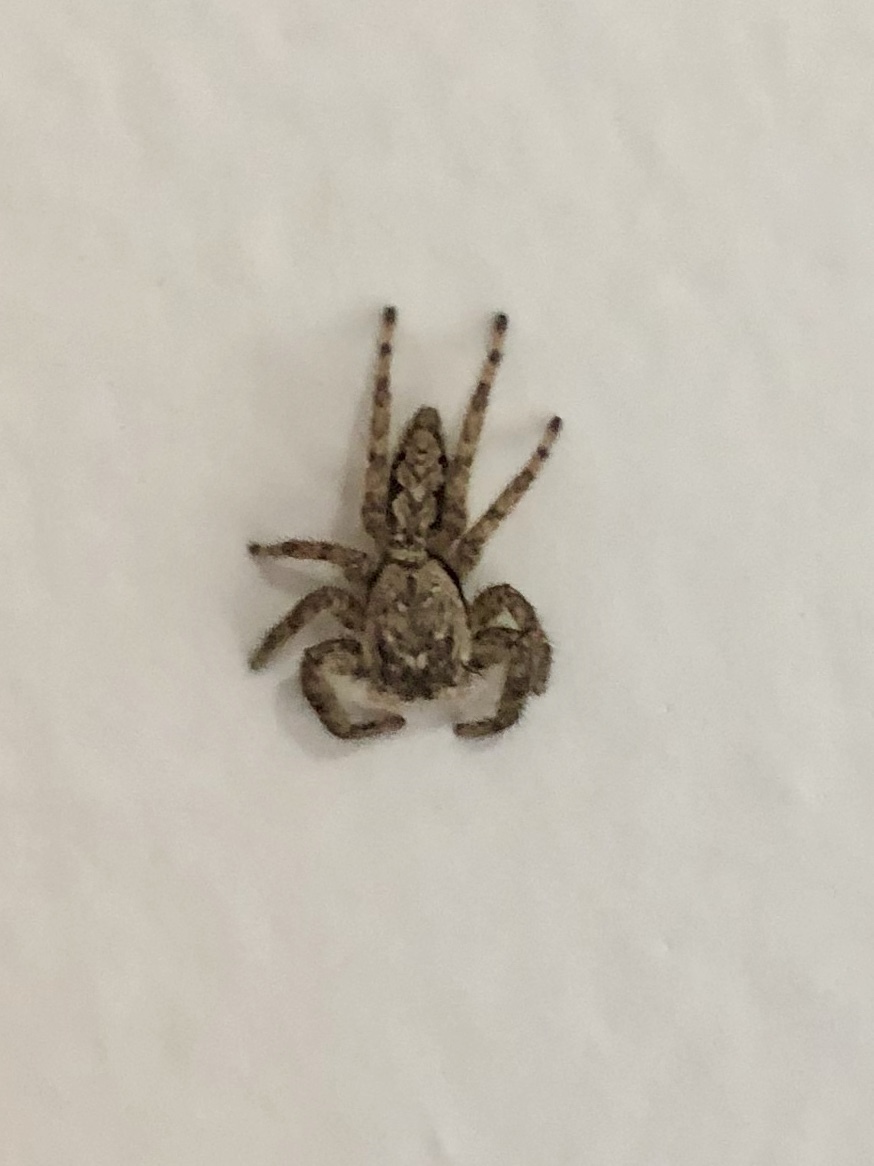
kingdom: Animalia
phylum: Arthropoda
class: Arachnida
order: Araneae
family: Salticidae
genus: Platycryptus
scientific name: Platycryptus undatus
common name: Tan jumping spider
